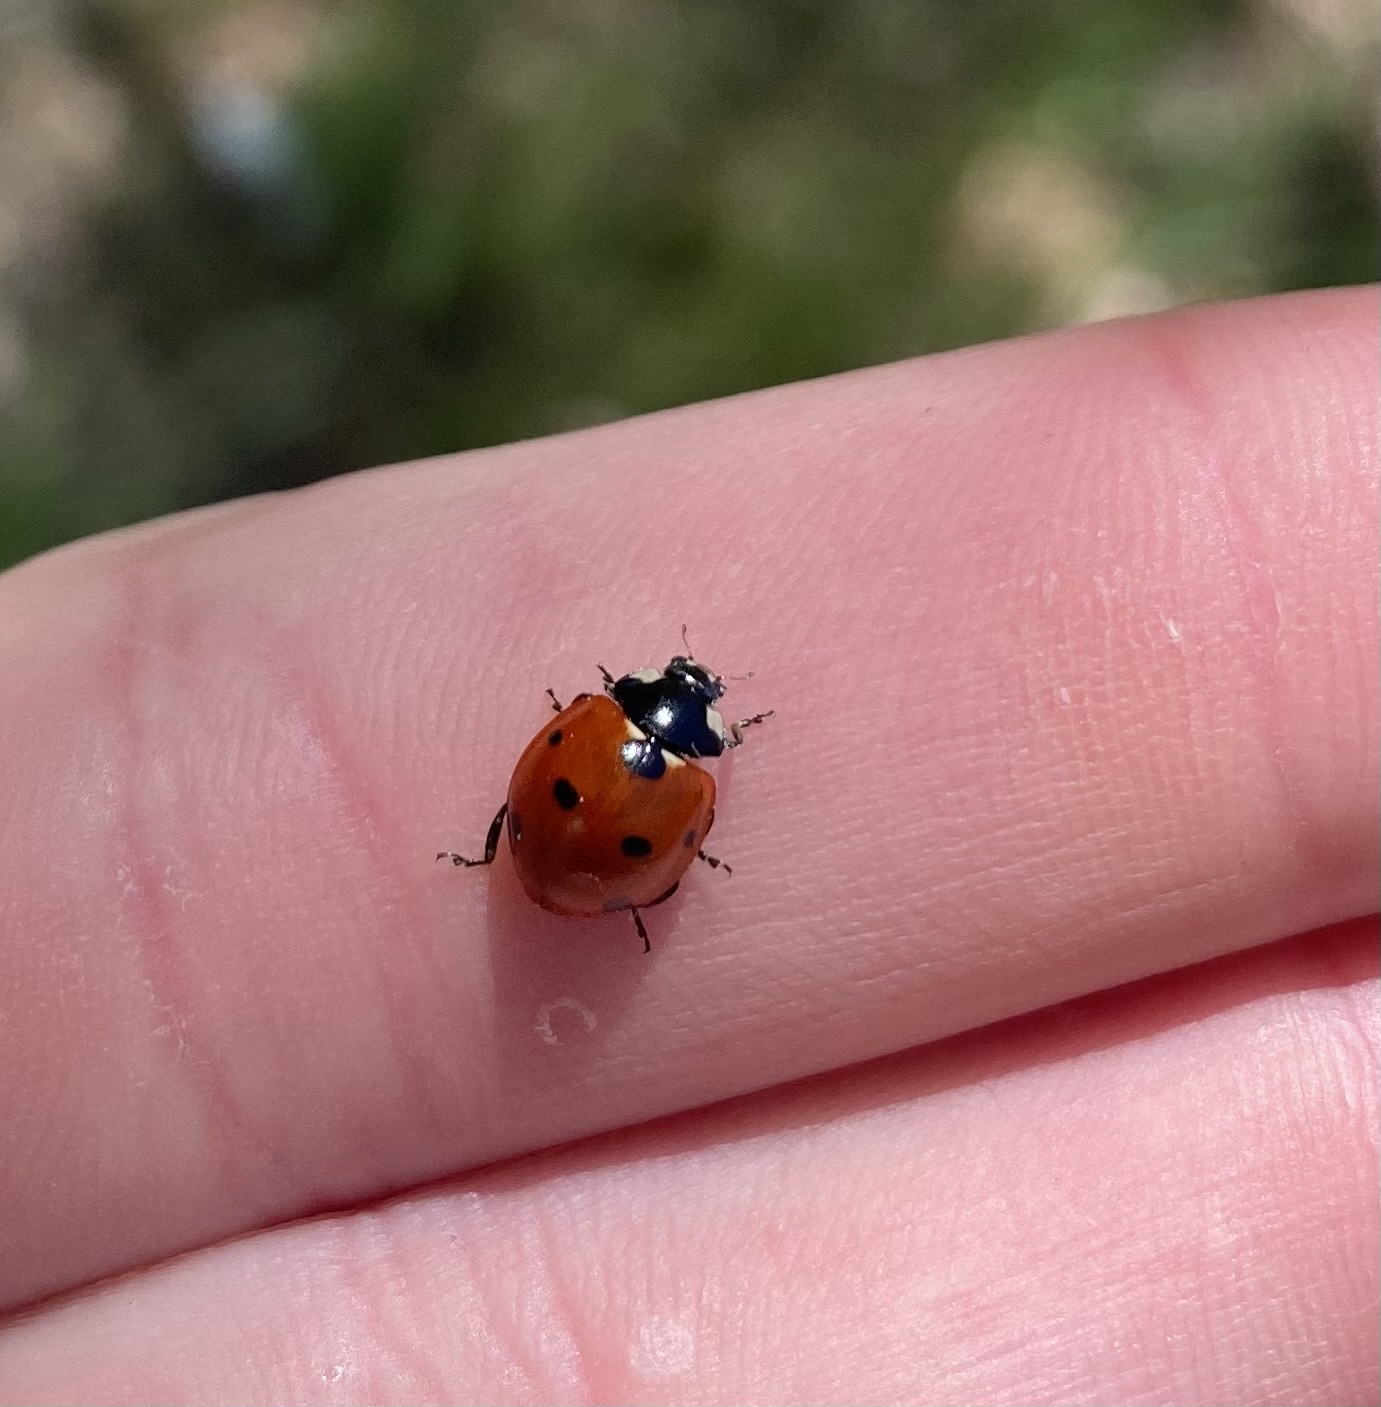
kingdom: Animalia
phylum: Arthropoda
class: Insecta
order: Coleoptera
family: Coccinellidae
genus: Coccinella
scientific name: Coccinella septempunctata
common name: Sevenspotted lady beetle
